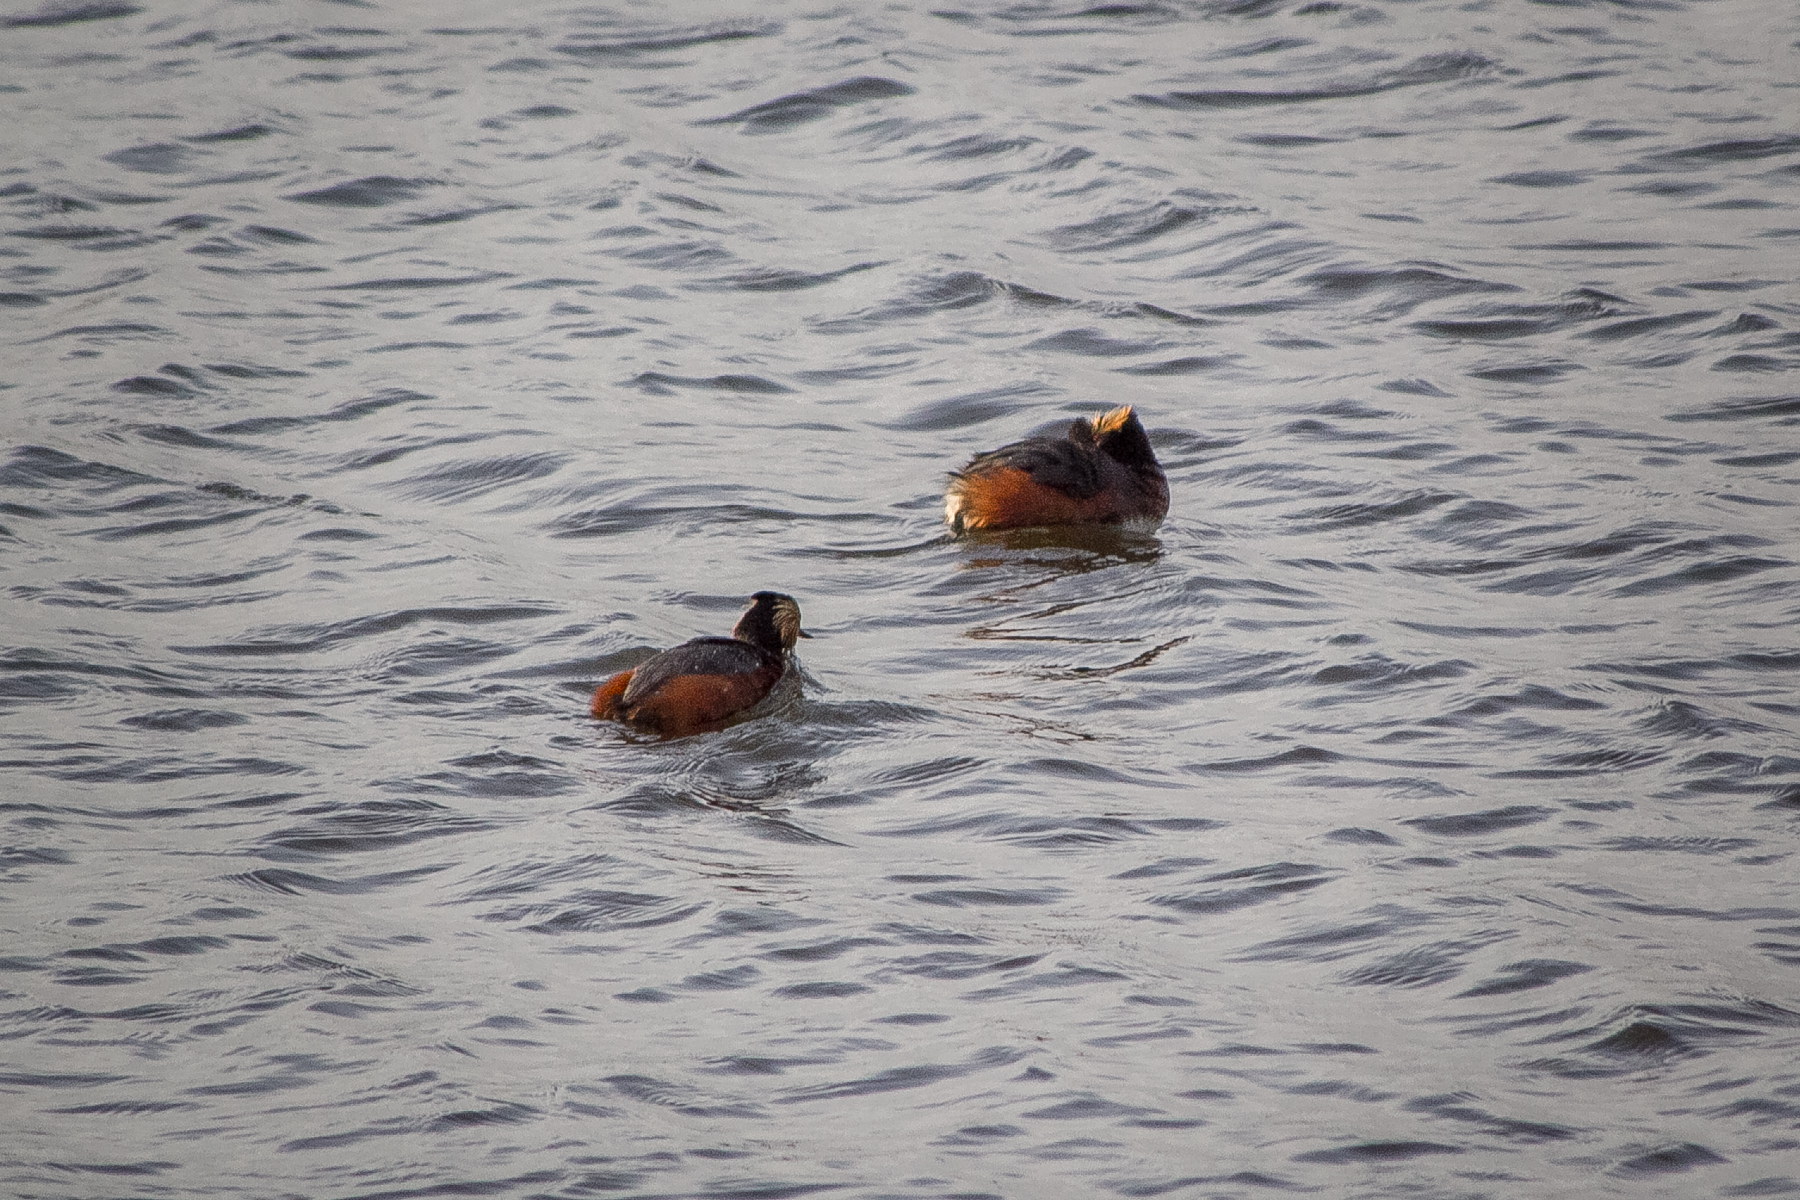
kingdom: Animalia
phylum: Chordata
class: Aves
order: Podicipediformes
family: Podicipedidae
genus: Podiceps
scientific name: Podiceps nigricollis
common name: Black-necked grebe
